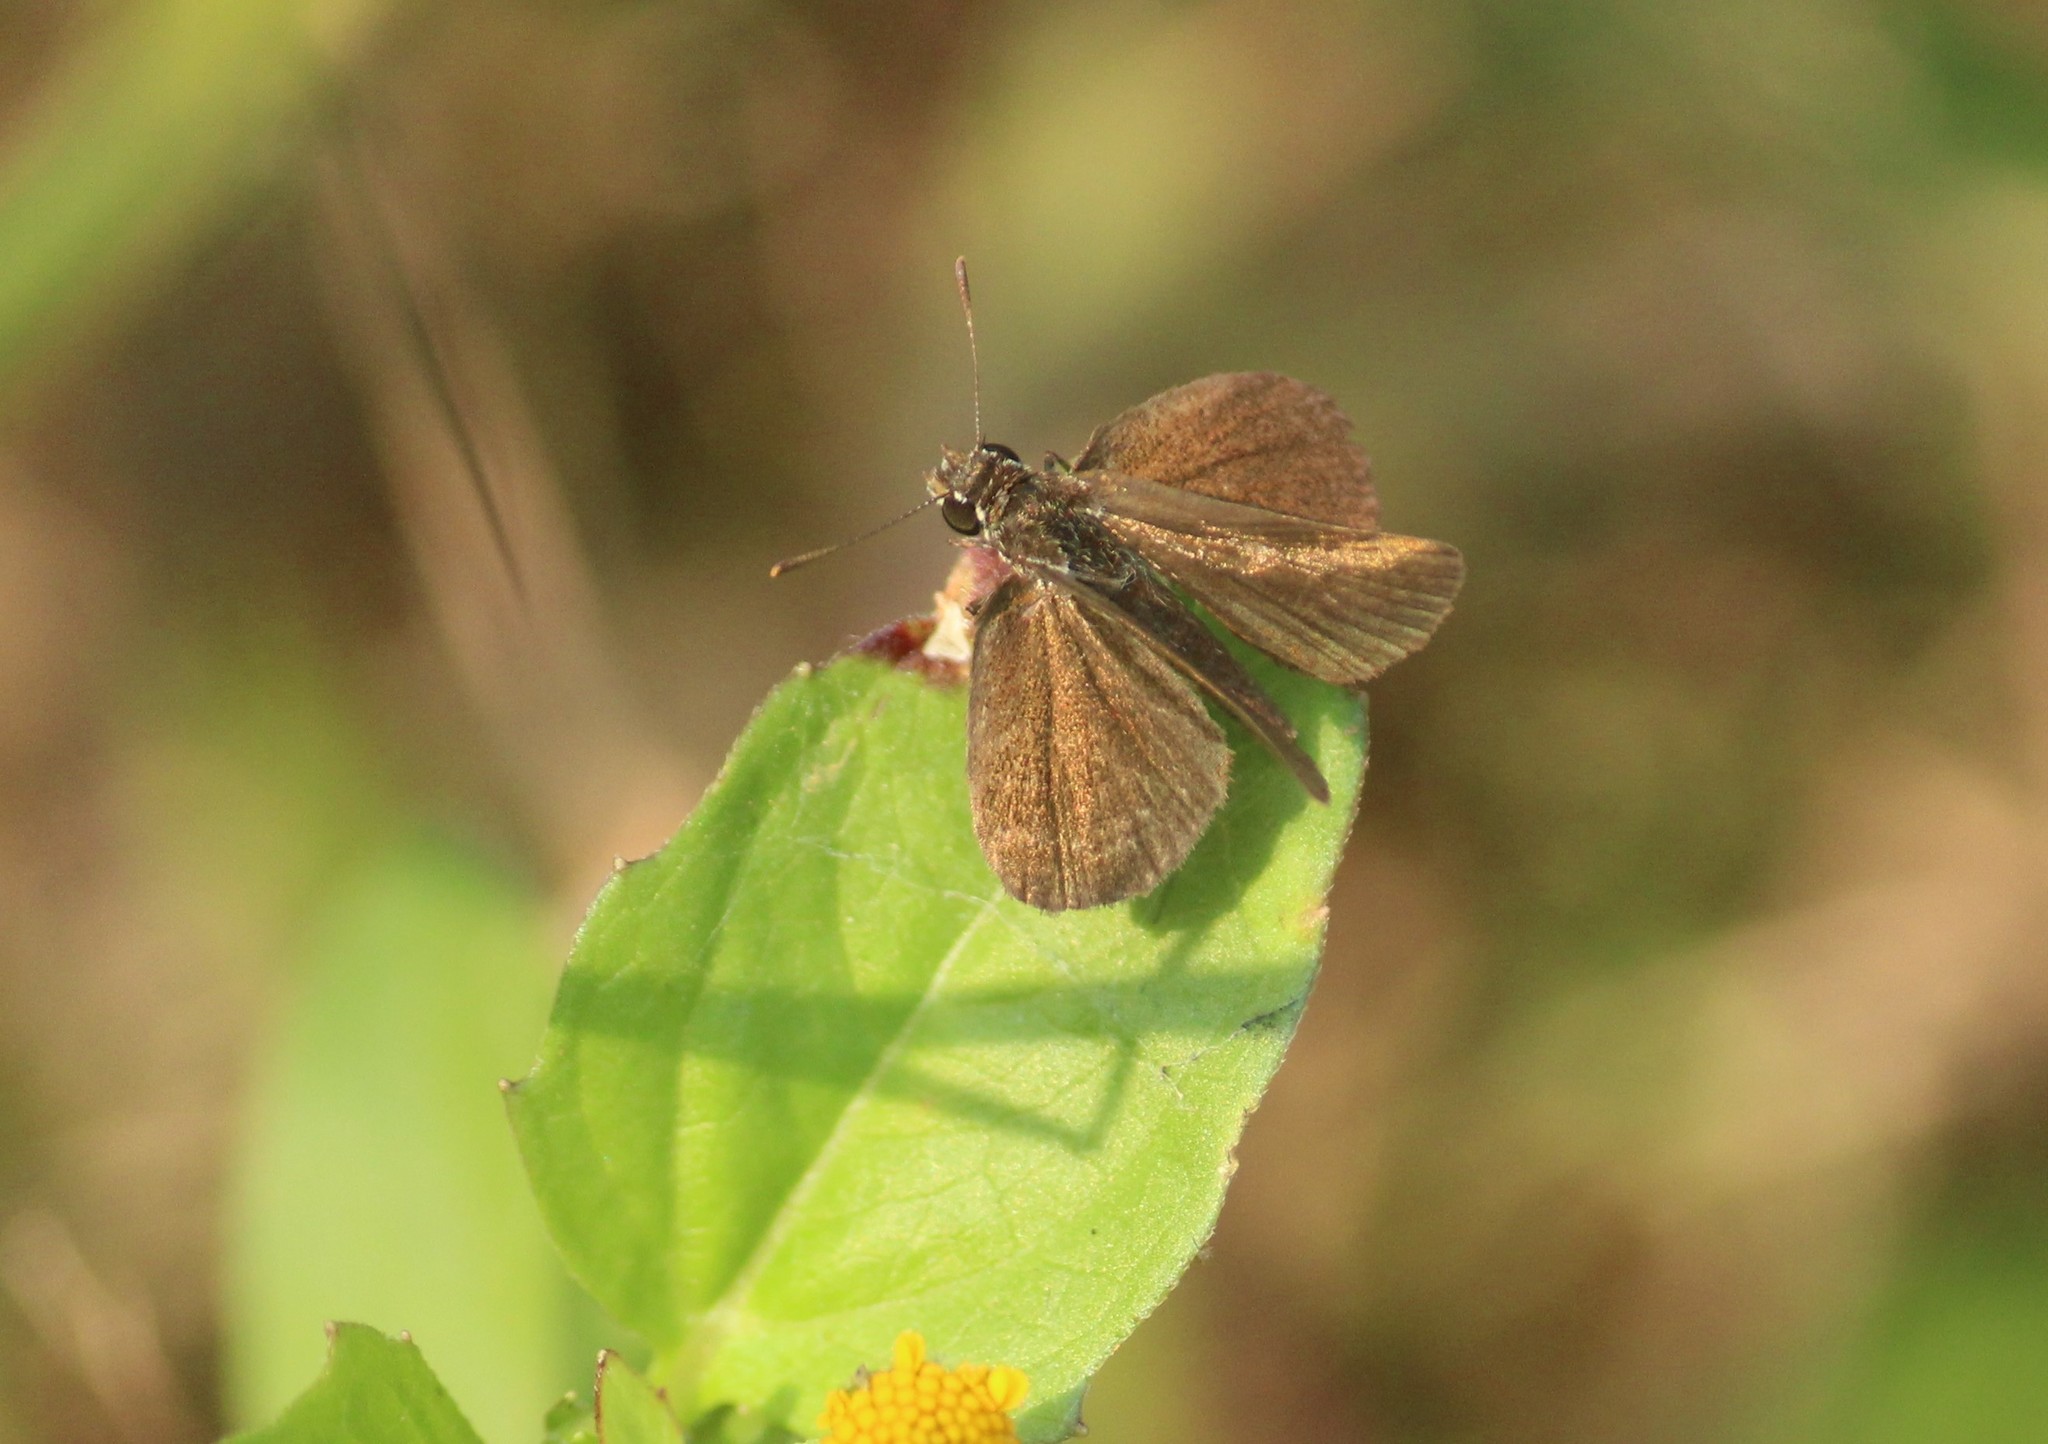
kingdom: Animalia
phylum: Arthropoda
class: Insecta
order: Lepidoptera
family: Hesperiidae
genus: Aeromachus
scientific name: Aeromachus pygmaeus
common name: Pygmy scrub hopper
